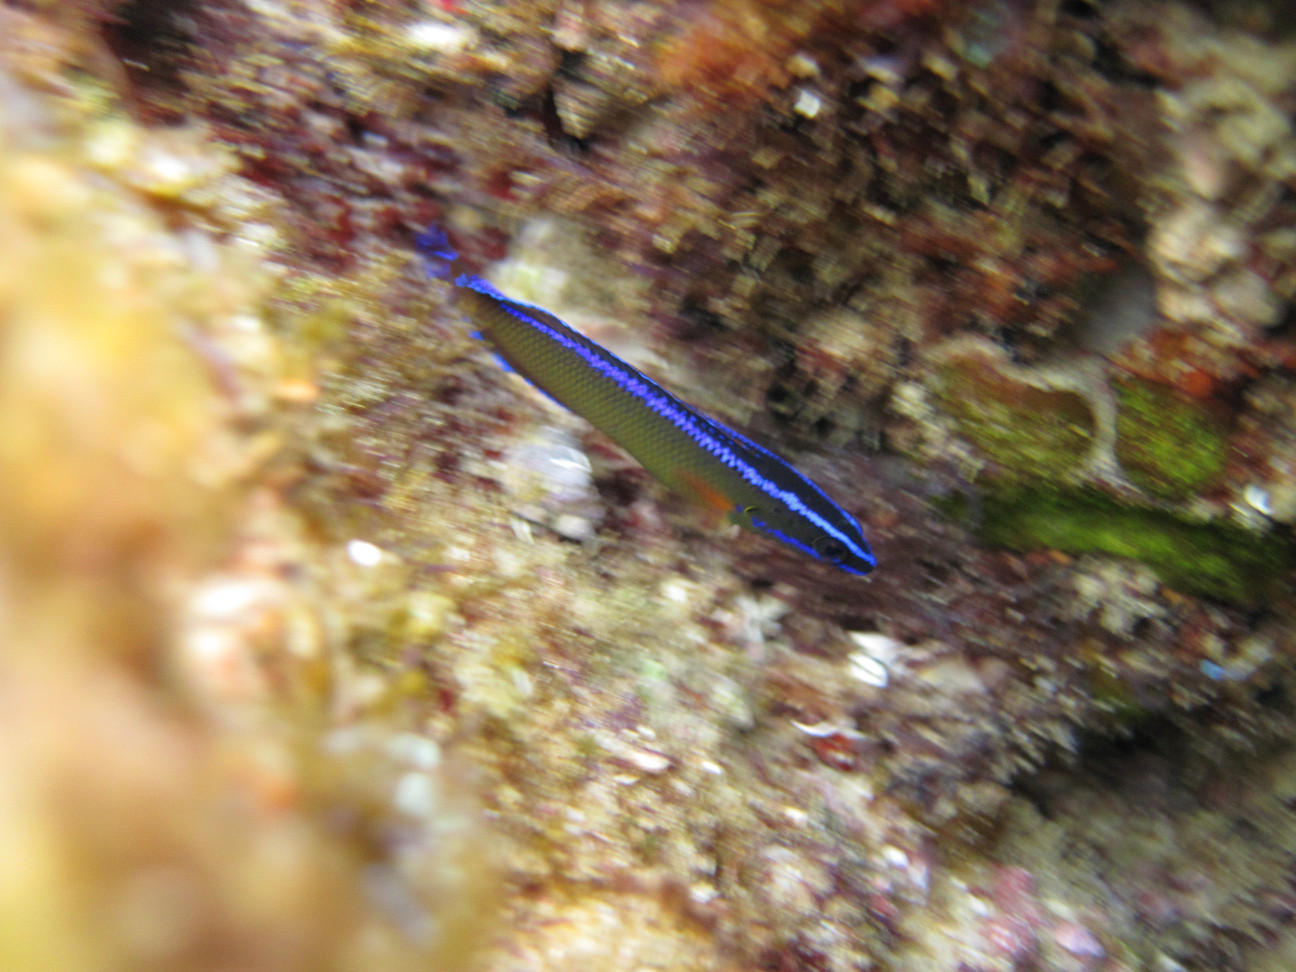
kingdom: Animalia
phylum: Chordata
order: Perciformes
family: Pseudochromidae
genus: Pseudochromis
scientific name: Pseudochromis dutoiti
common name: Dutoiti
